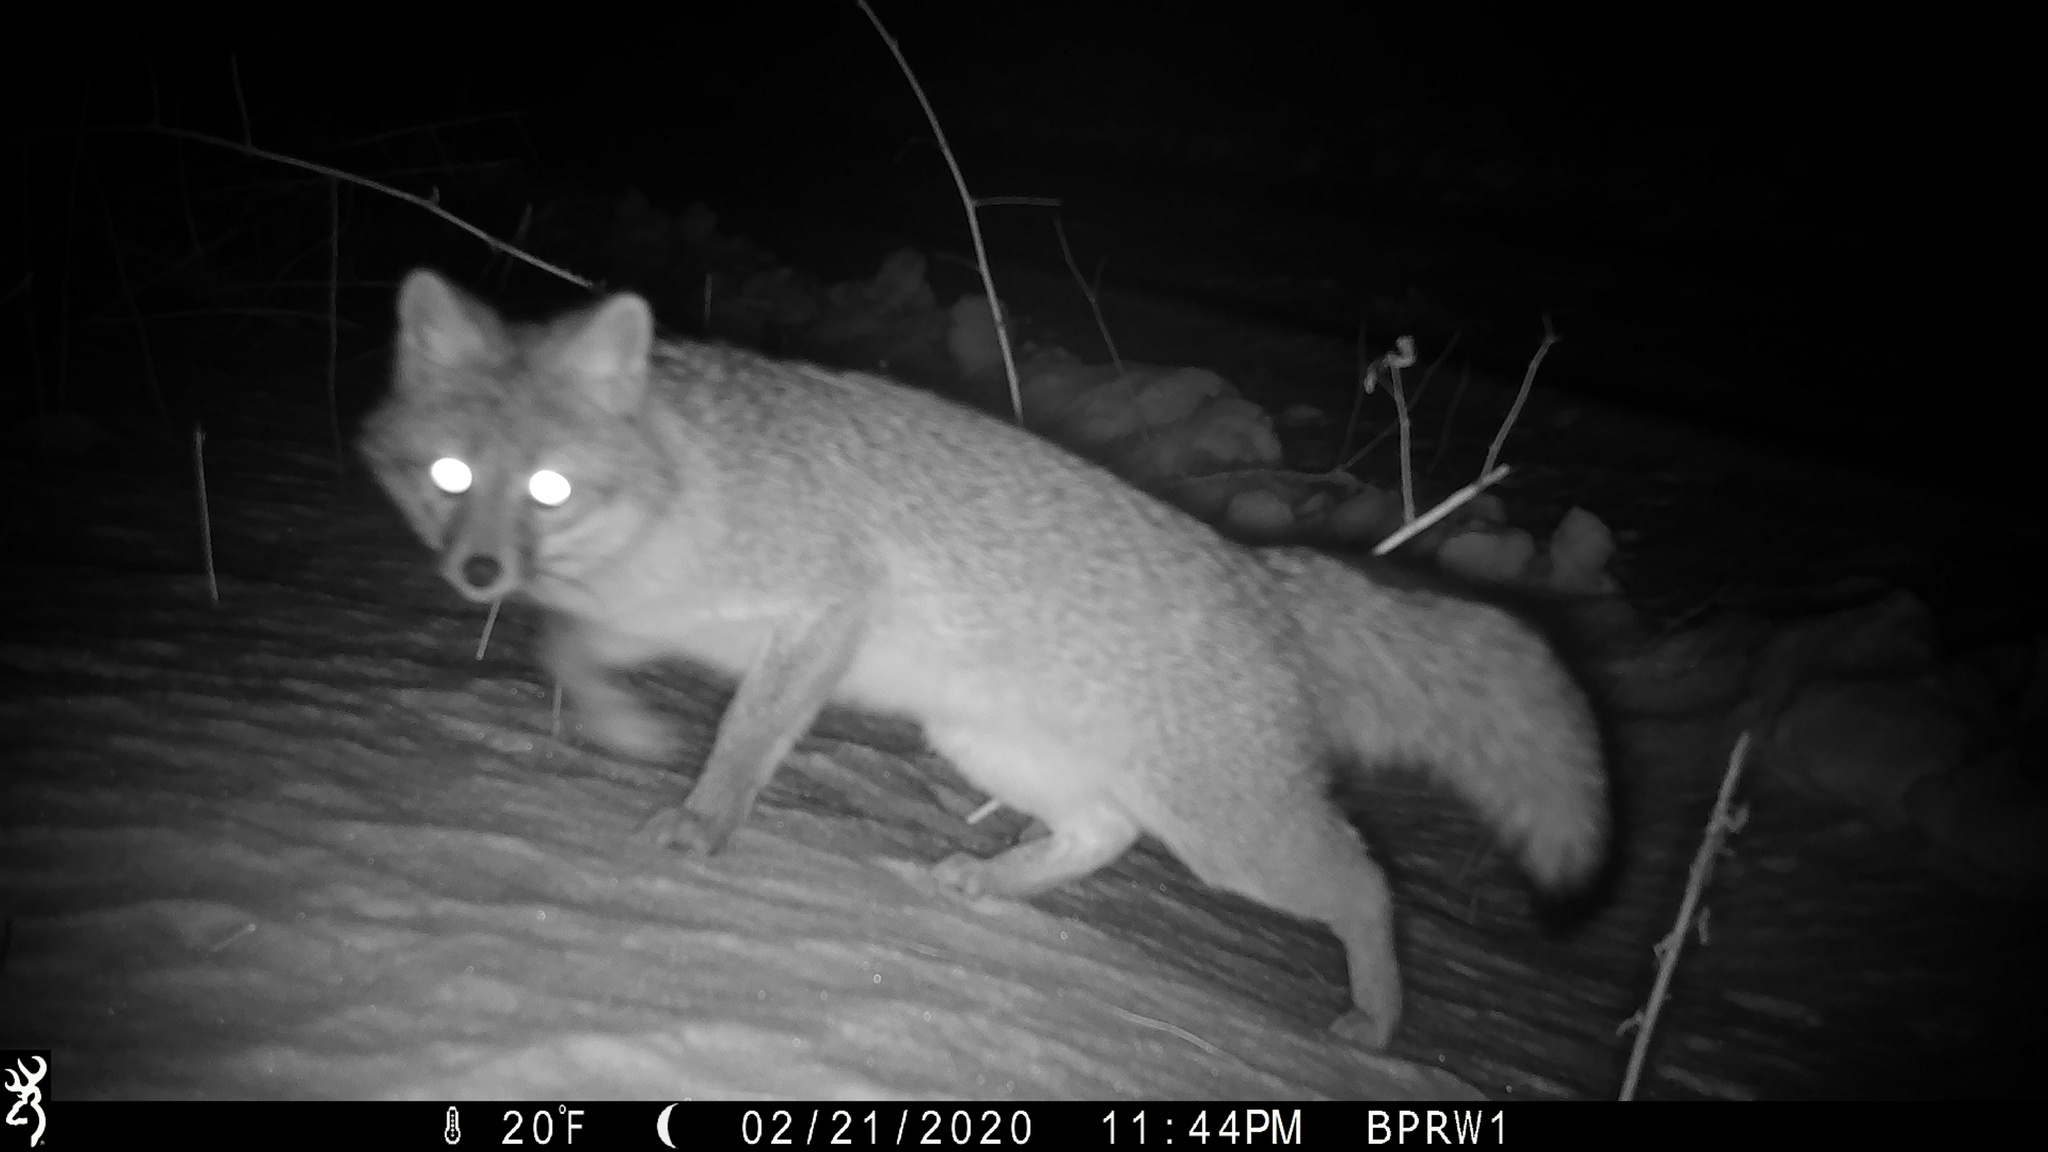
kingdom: Animalia
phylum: Chordata
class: Mammalia
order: Carnivora
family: Canidae
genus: Urocyon
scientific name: Urocyon cinereoargenteus
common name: Gray fox
